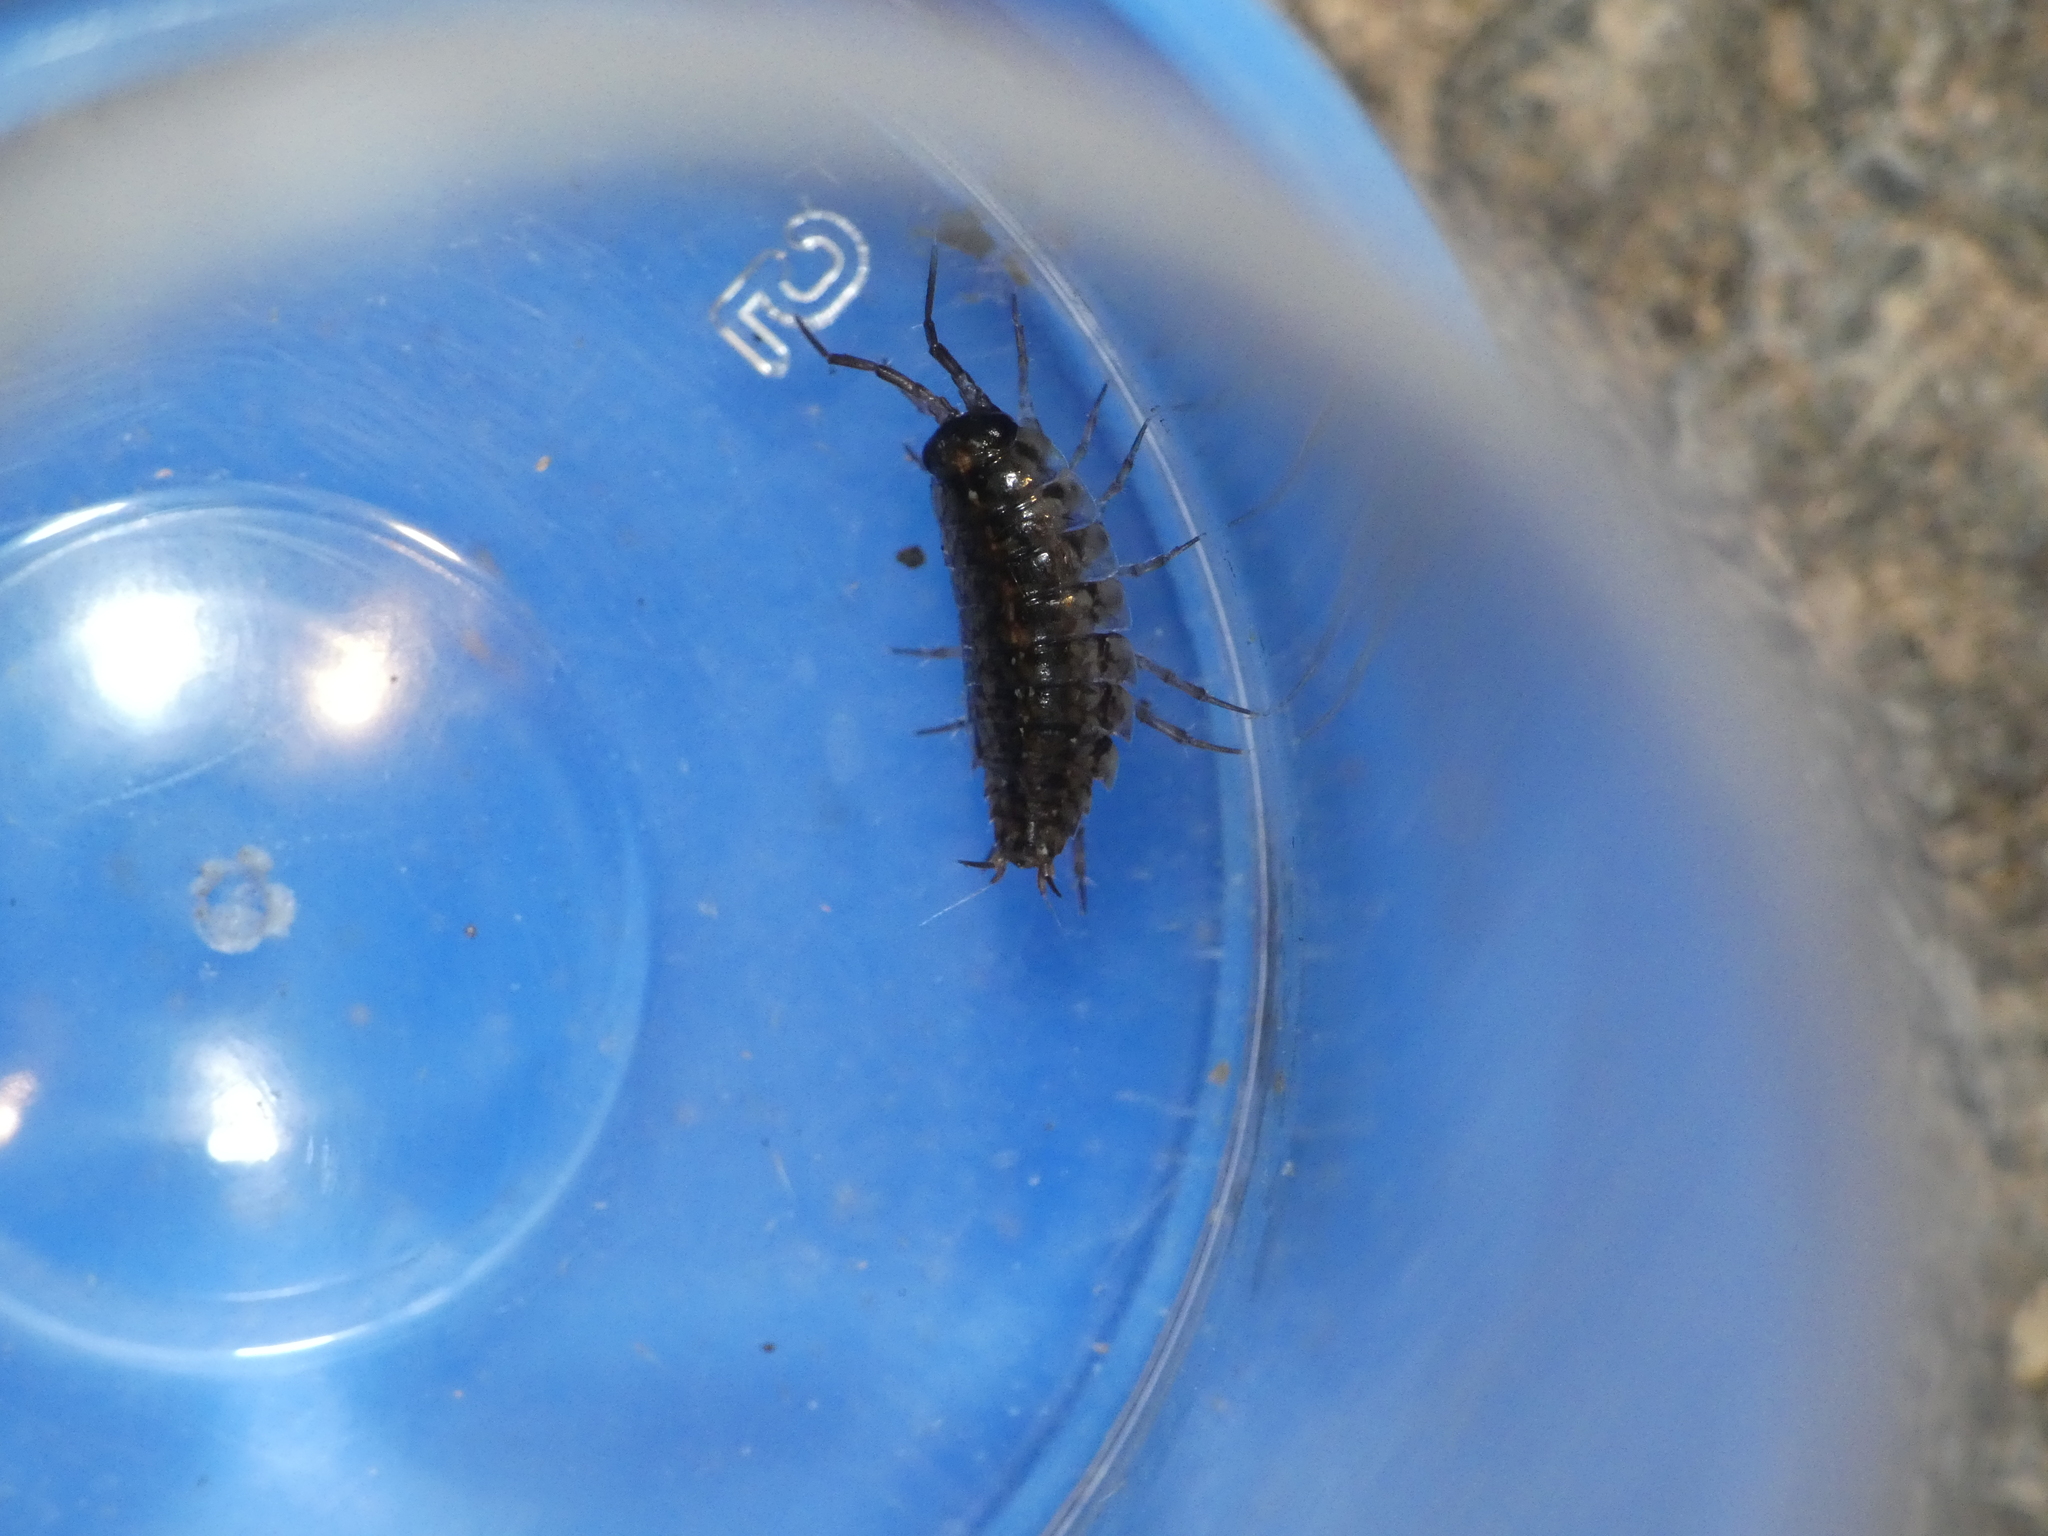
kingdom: Animalia
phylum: Arthropoda
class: Malacostraca
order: Isopoda
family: Ligiidae
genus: Ligidium
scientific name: Ligidium hypnorum
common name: Moss slater
